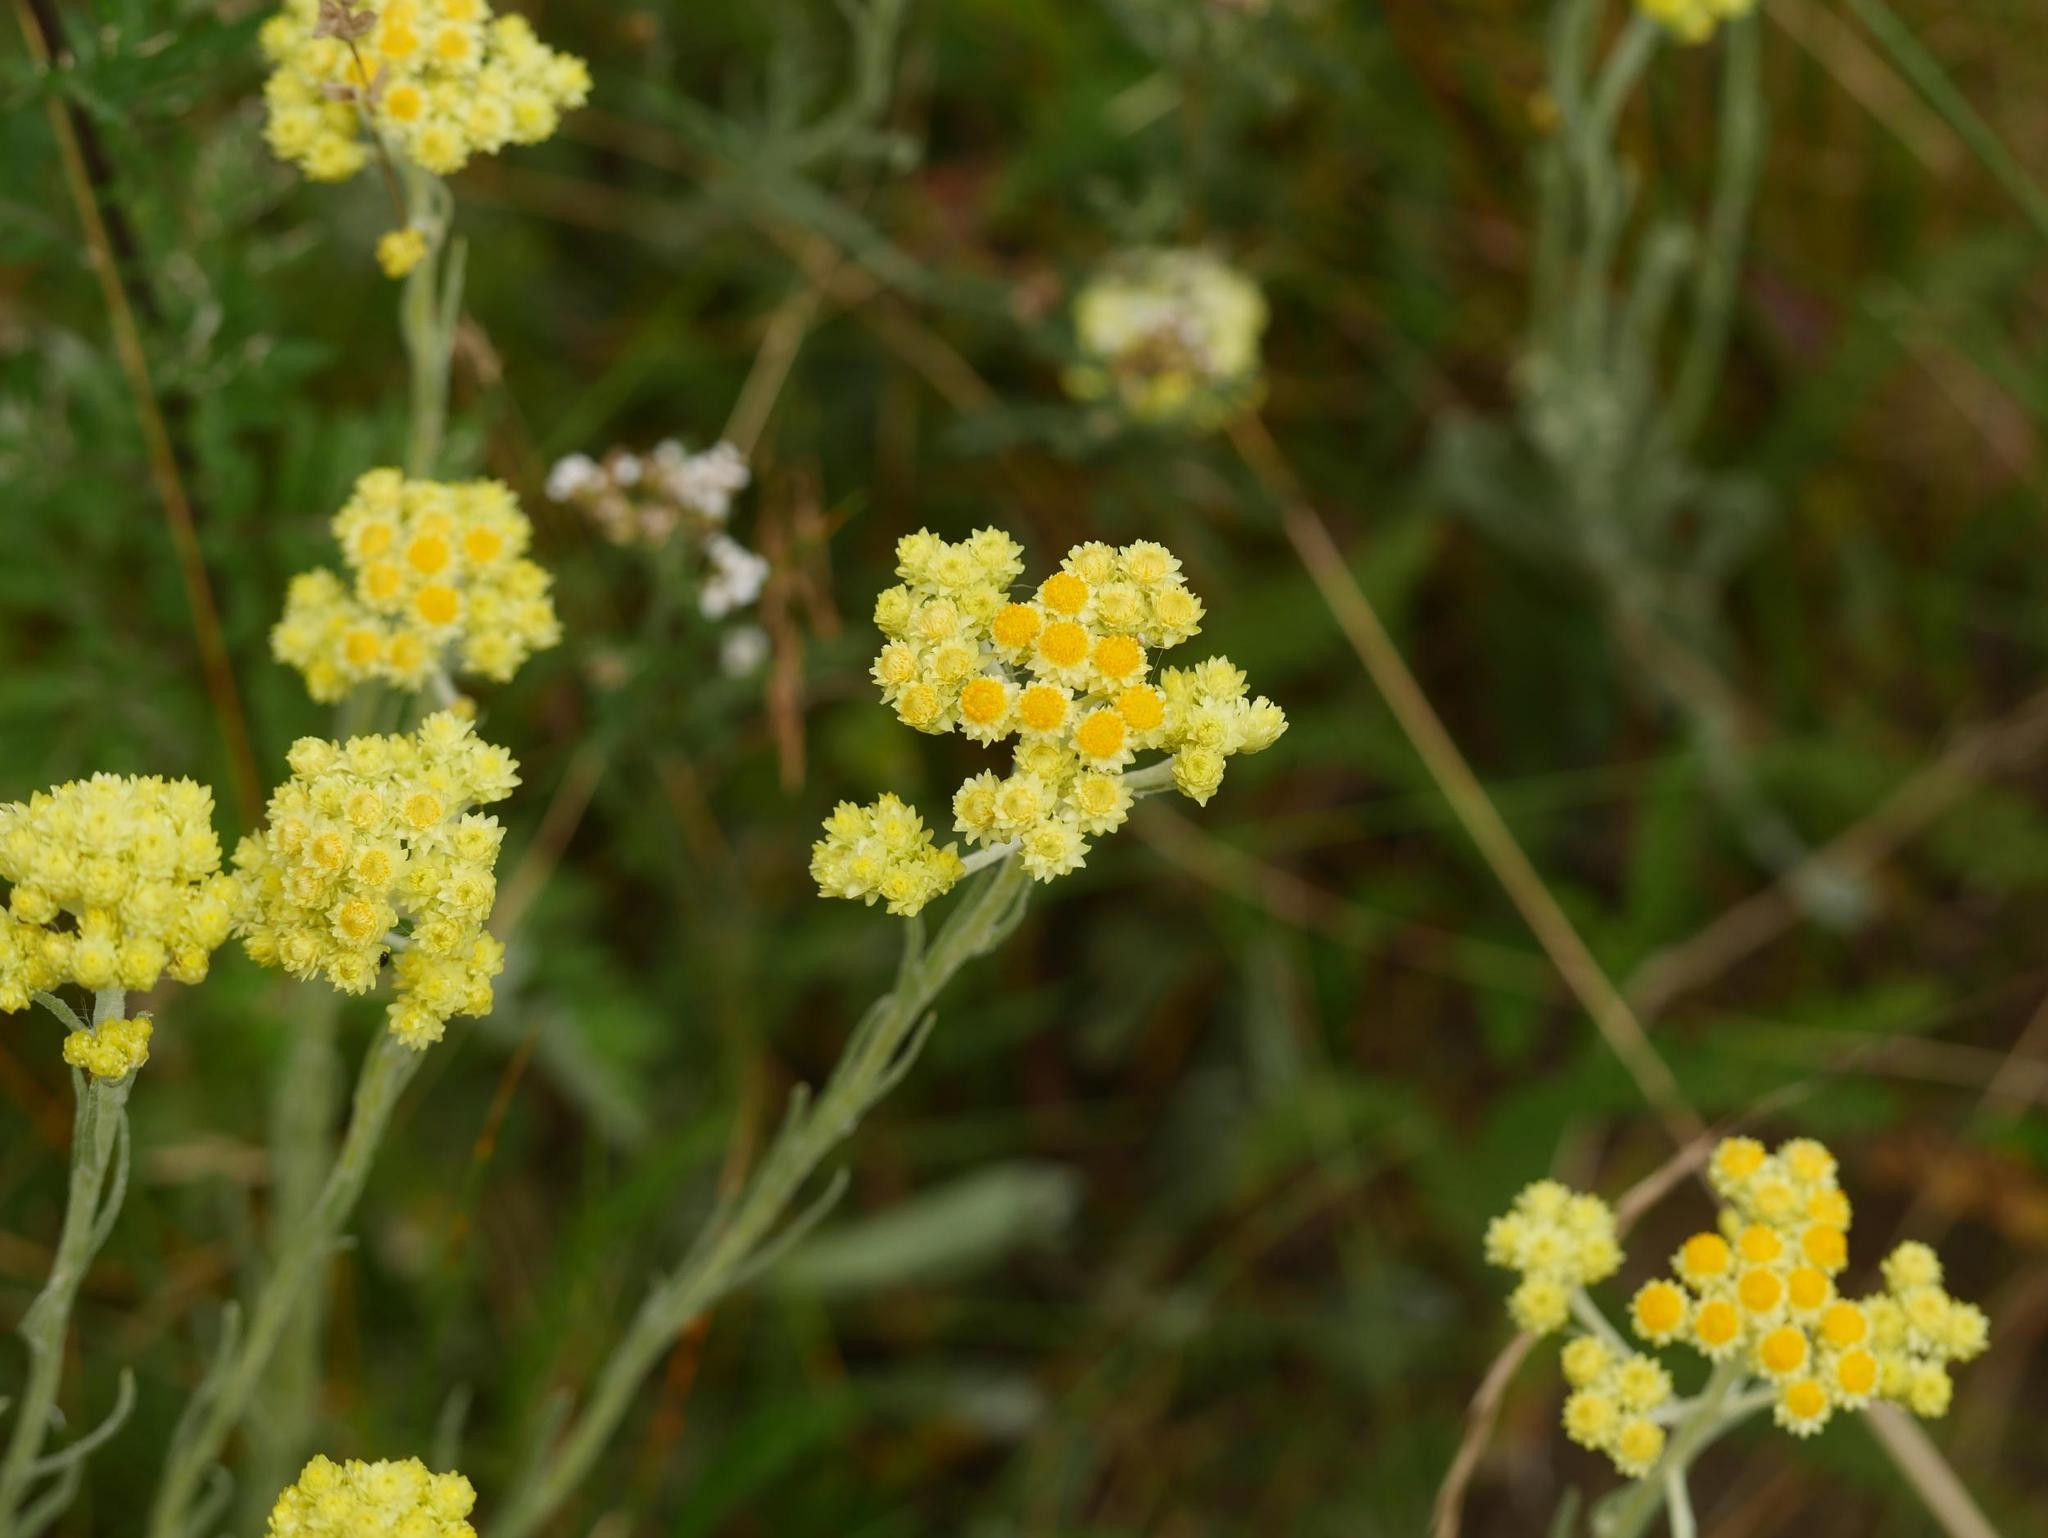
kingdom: Plantae
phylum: Tracheophyta
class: Magnoliopsida
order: Asterales
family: Asteraceae
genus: Helichrysum
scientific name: Helichrysum arenarium
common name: Strawflower
